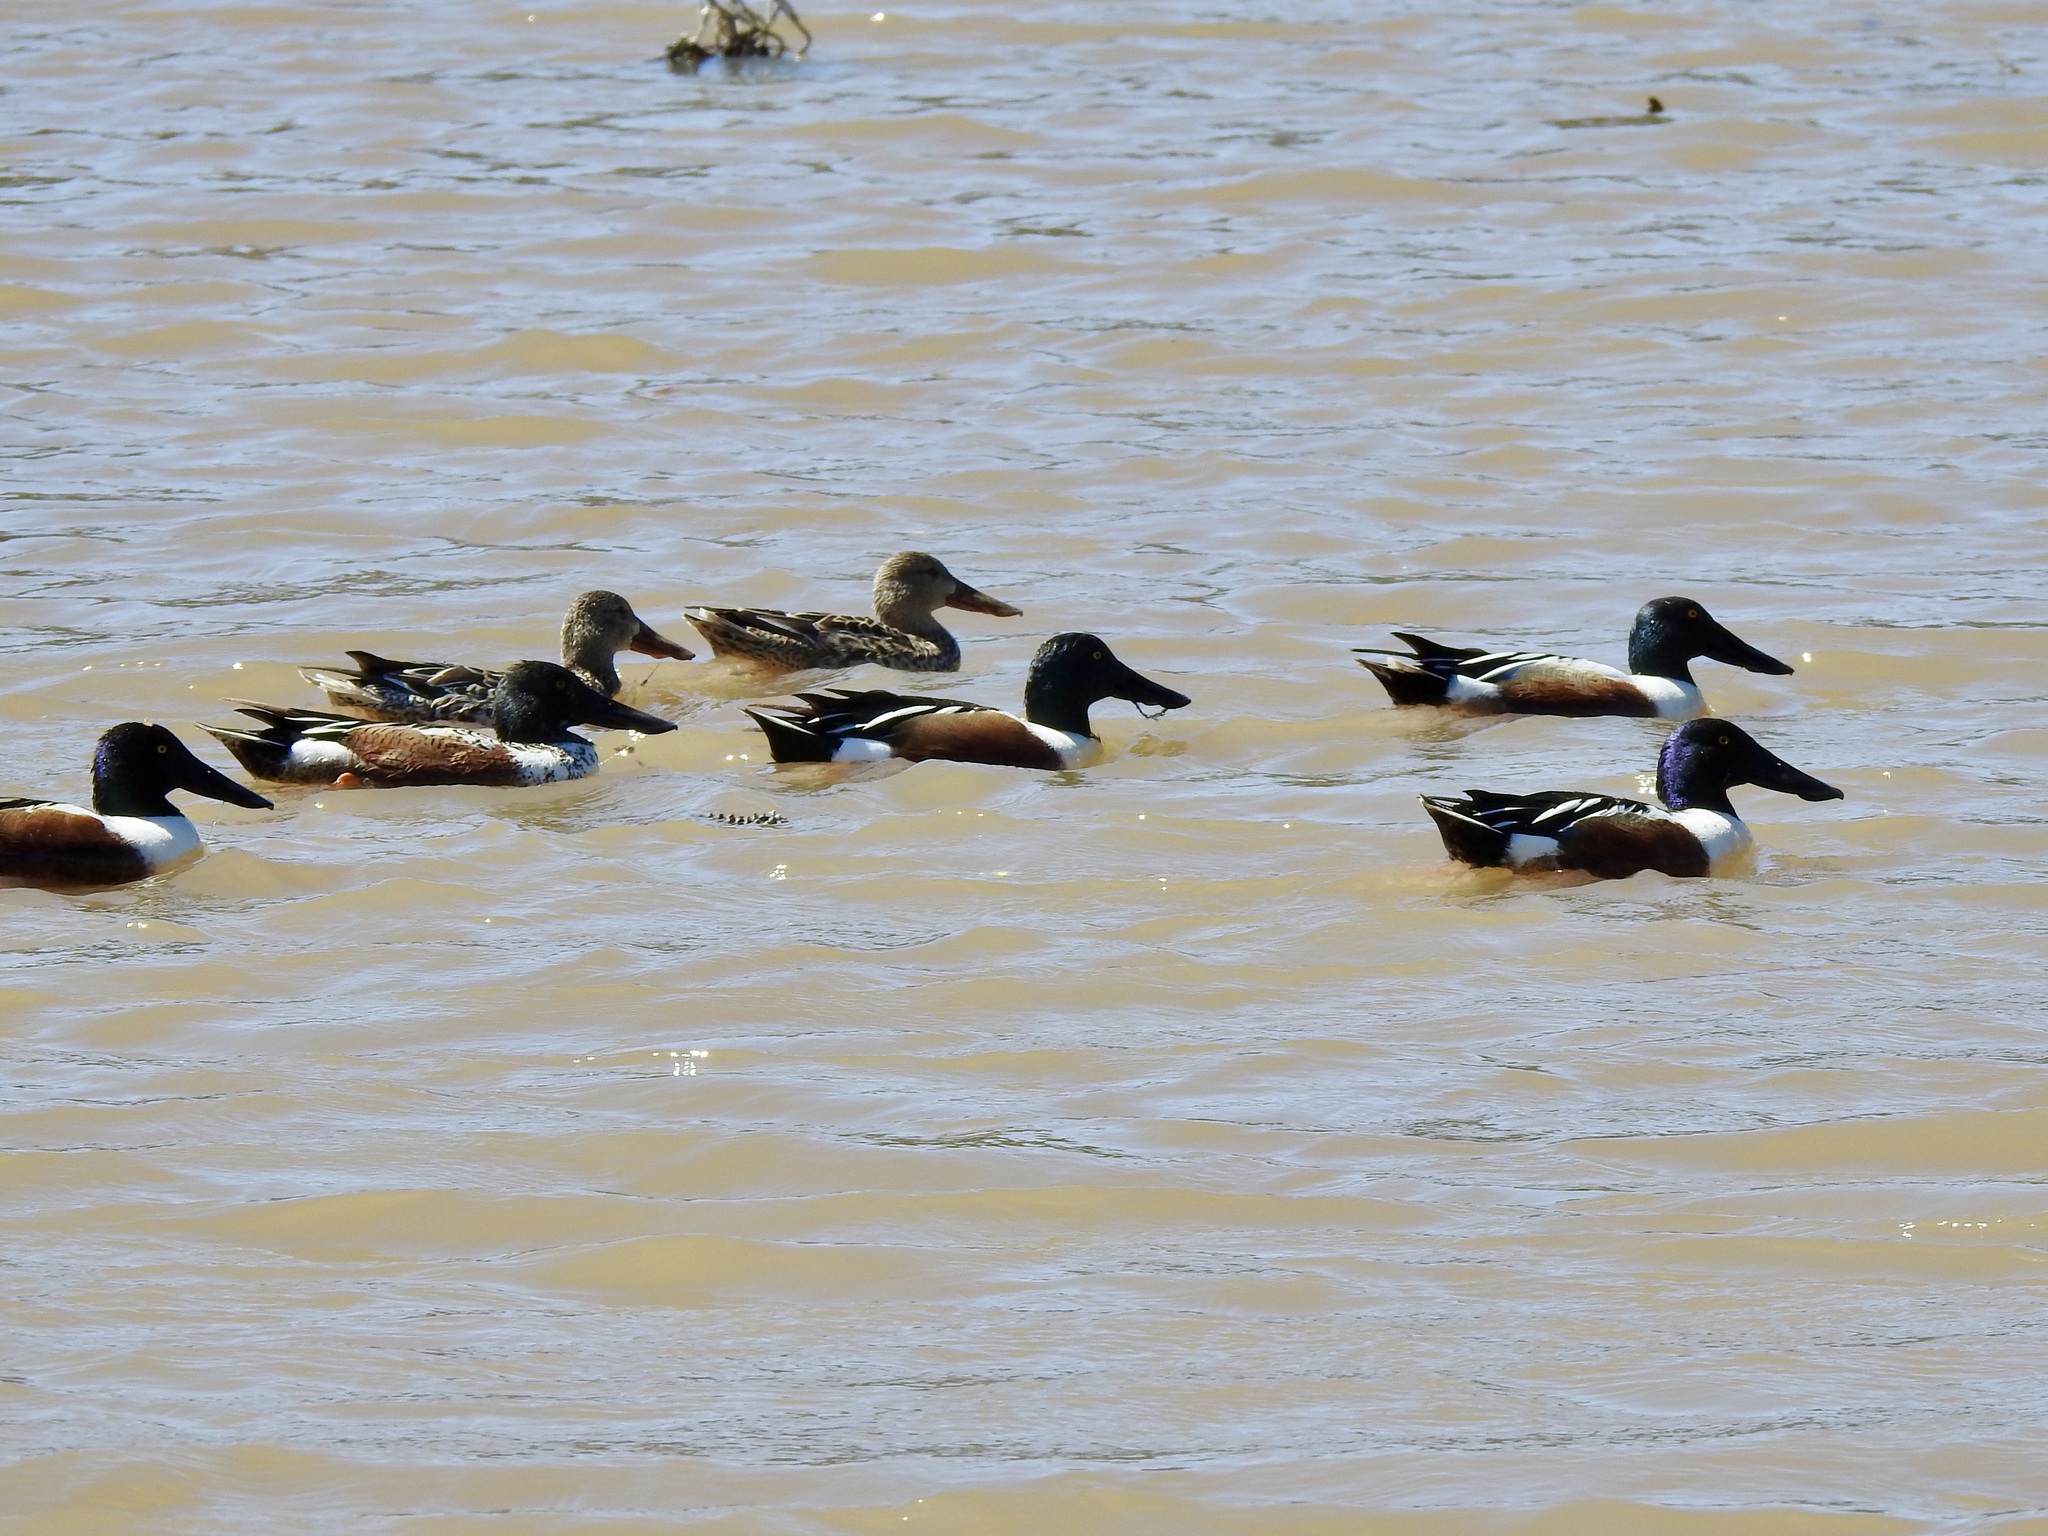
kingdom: Animalia
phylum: Chordata
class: Aves
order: Anseriformes
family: Anatidae
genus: Spatula
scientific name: Spatula clypeata
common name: Northern shoveler
